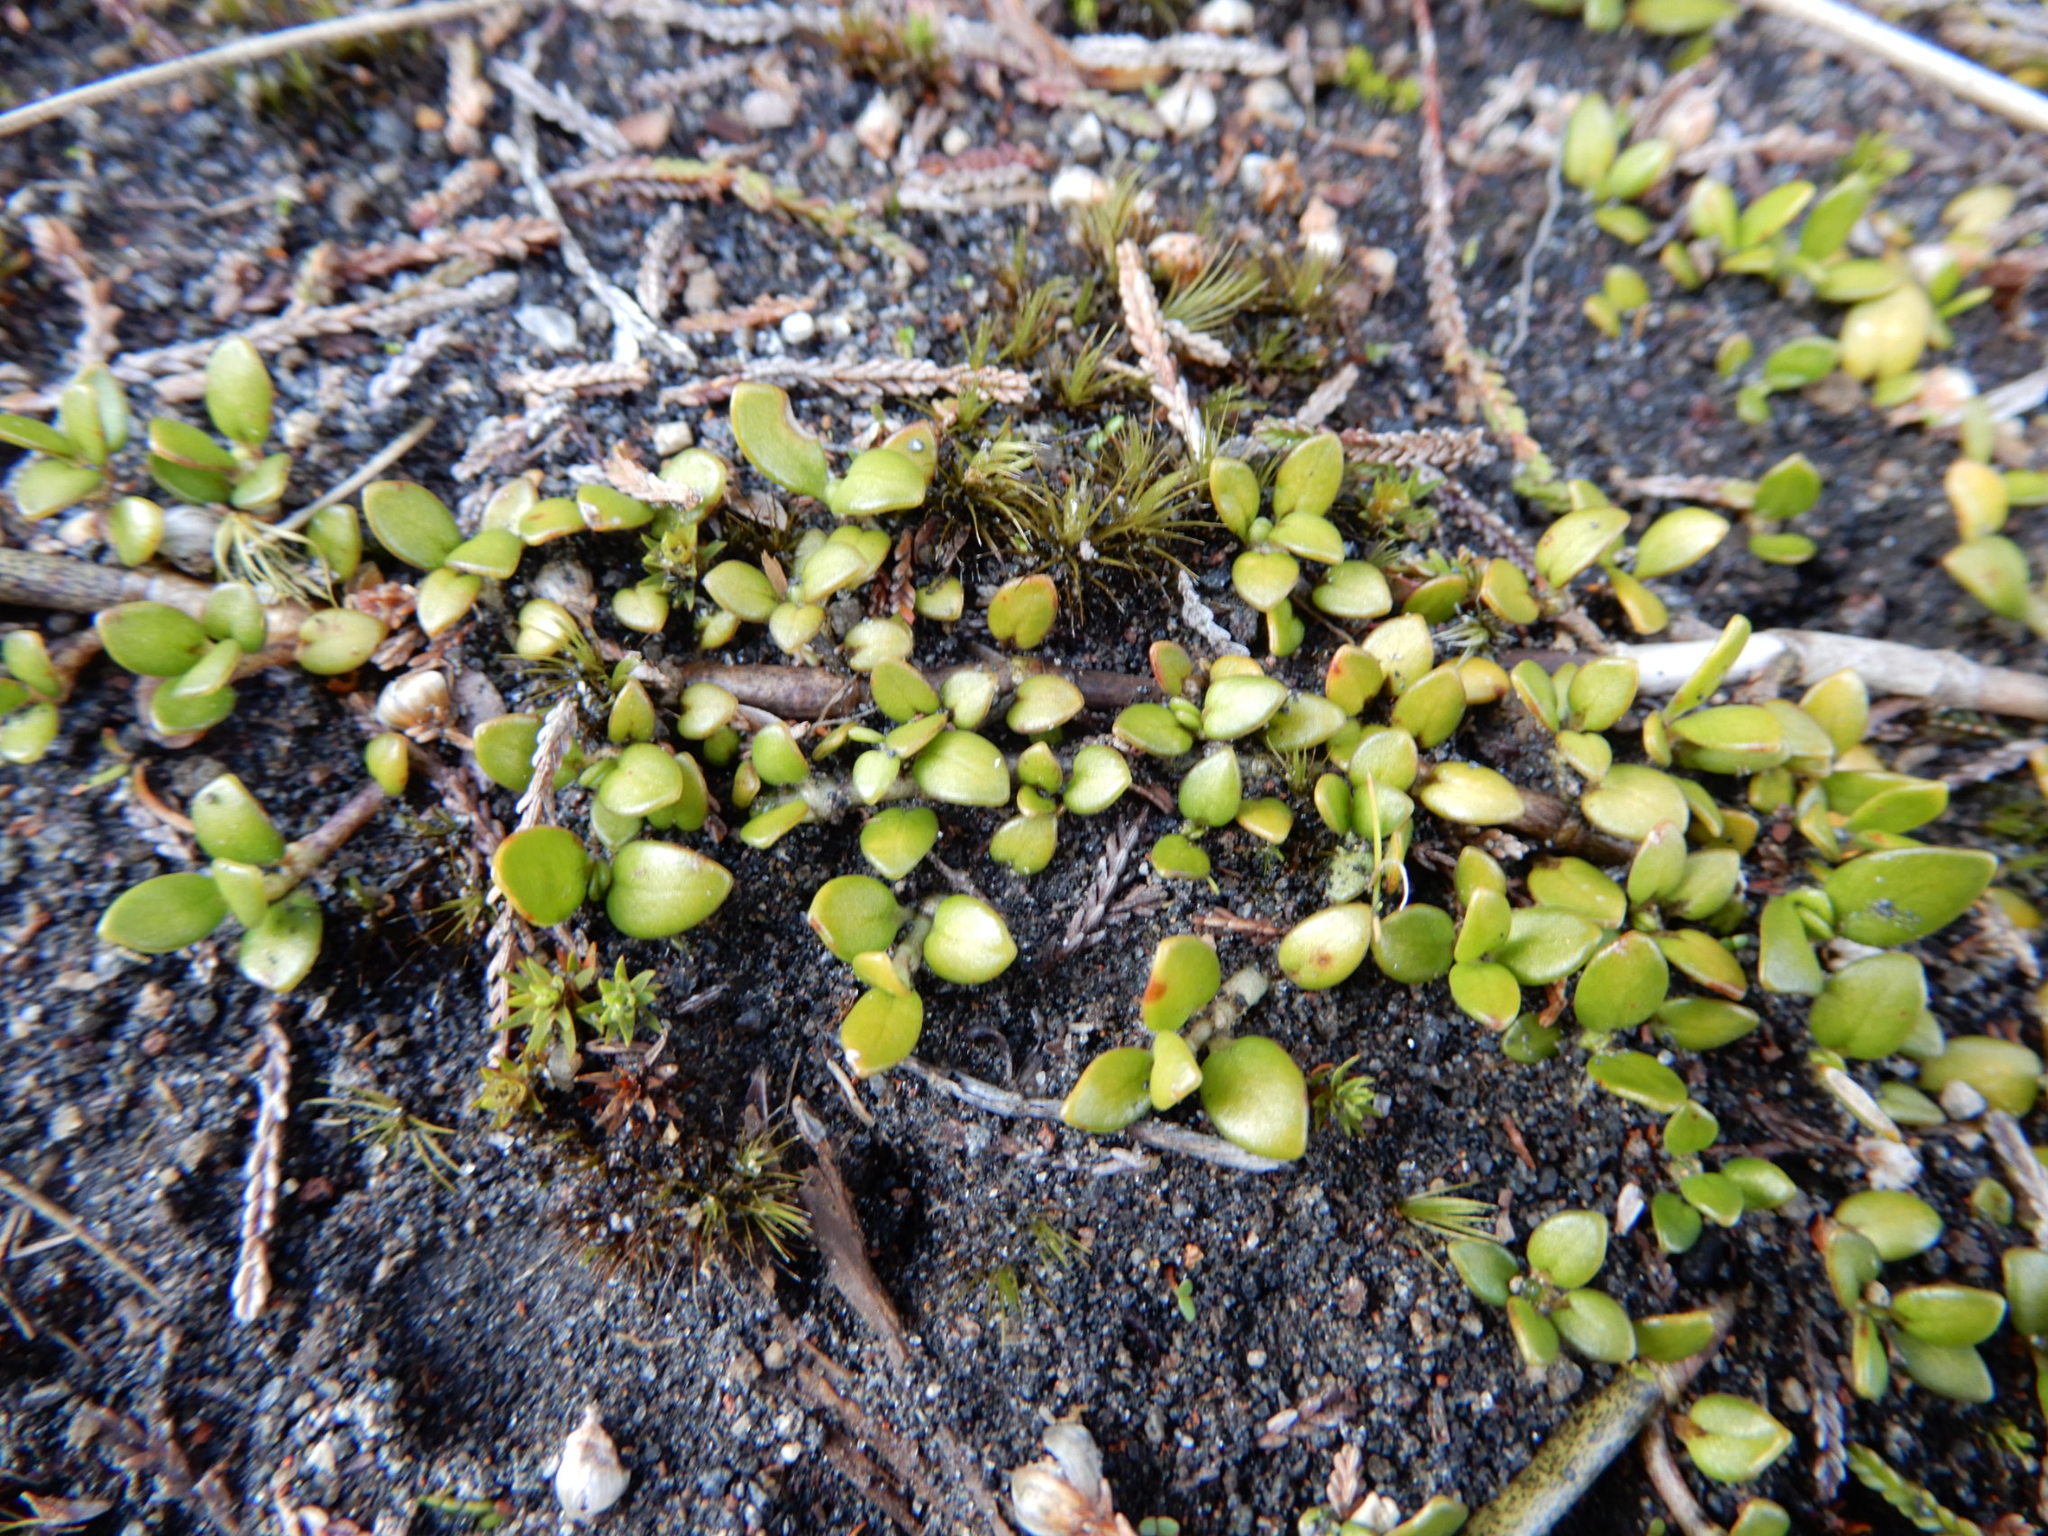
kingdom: Plantae
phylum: Tracheophyta
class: Magnoliopsida
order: Gentianales
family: Rubiaceae
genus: Coprosma
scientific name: Coprosma perpusilla
